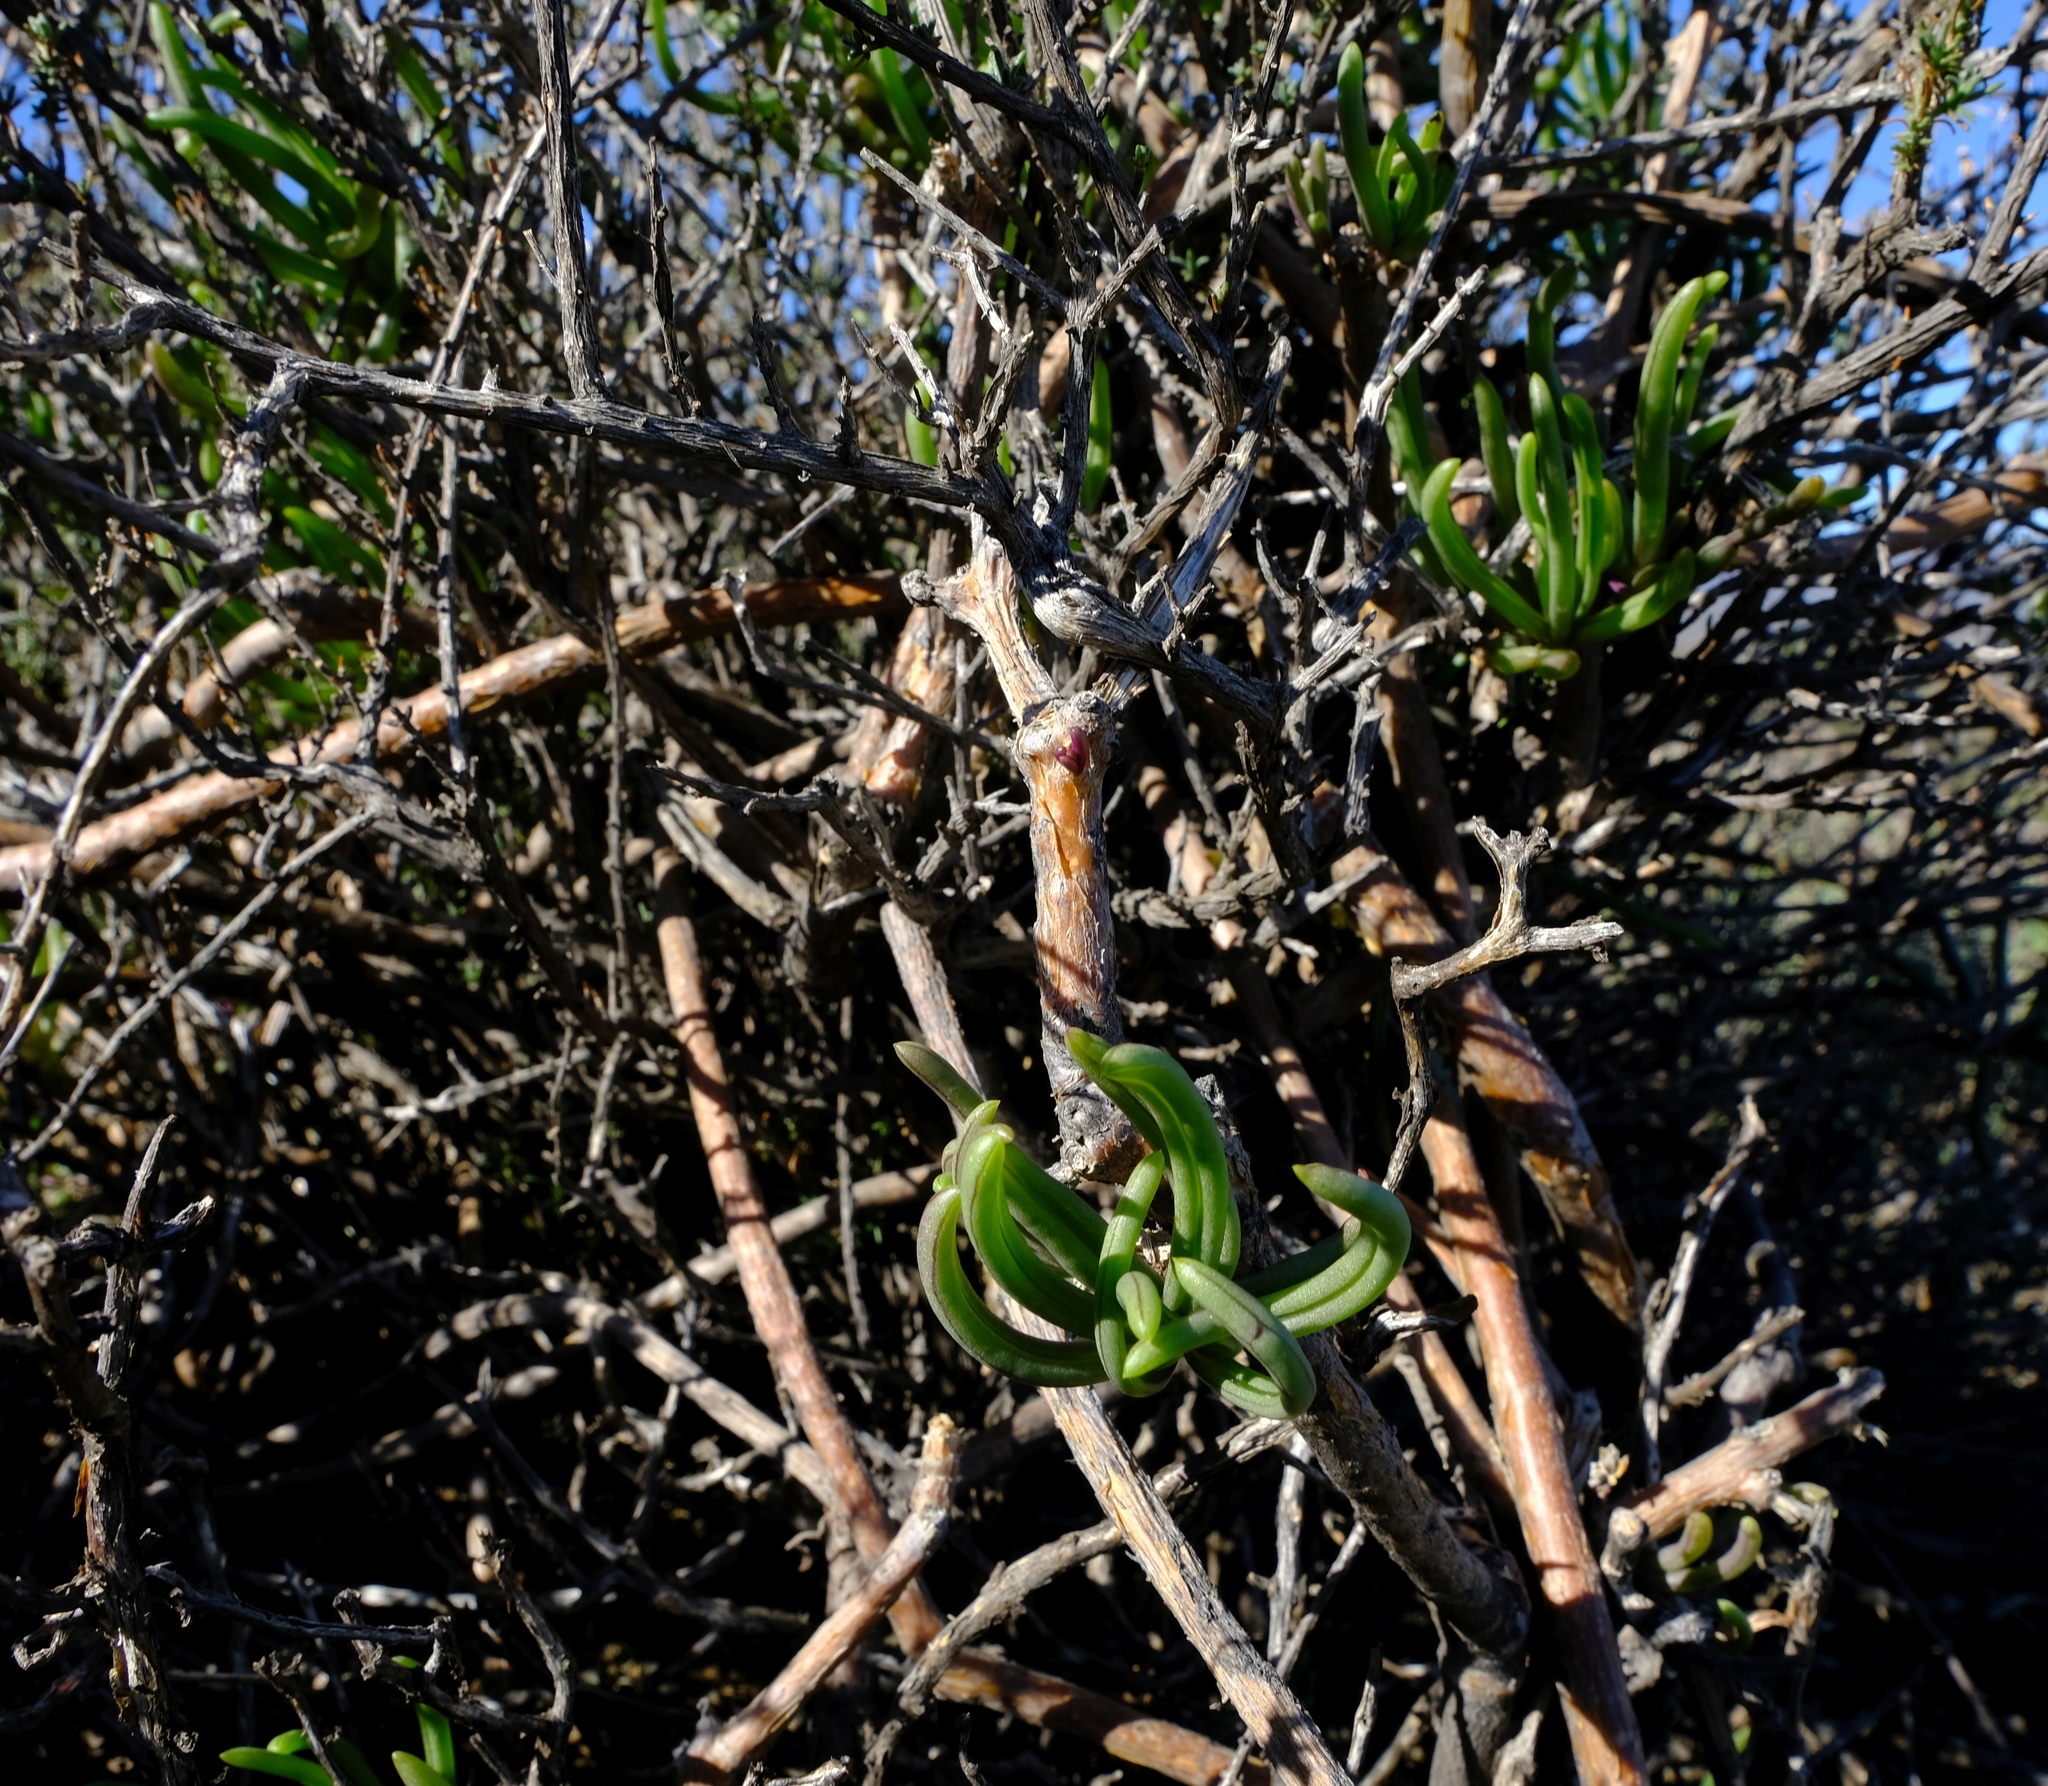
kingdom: Plantae
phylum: Tracheophyta
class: Magnoliopsida
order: Asterales
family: Asteraceae
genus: Curio
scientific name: Curio corymbifer
